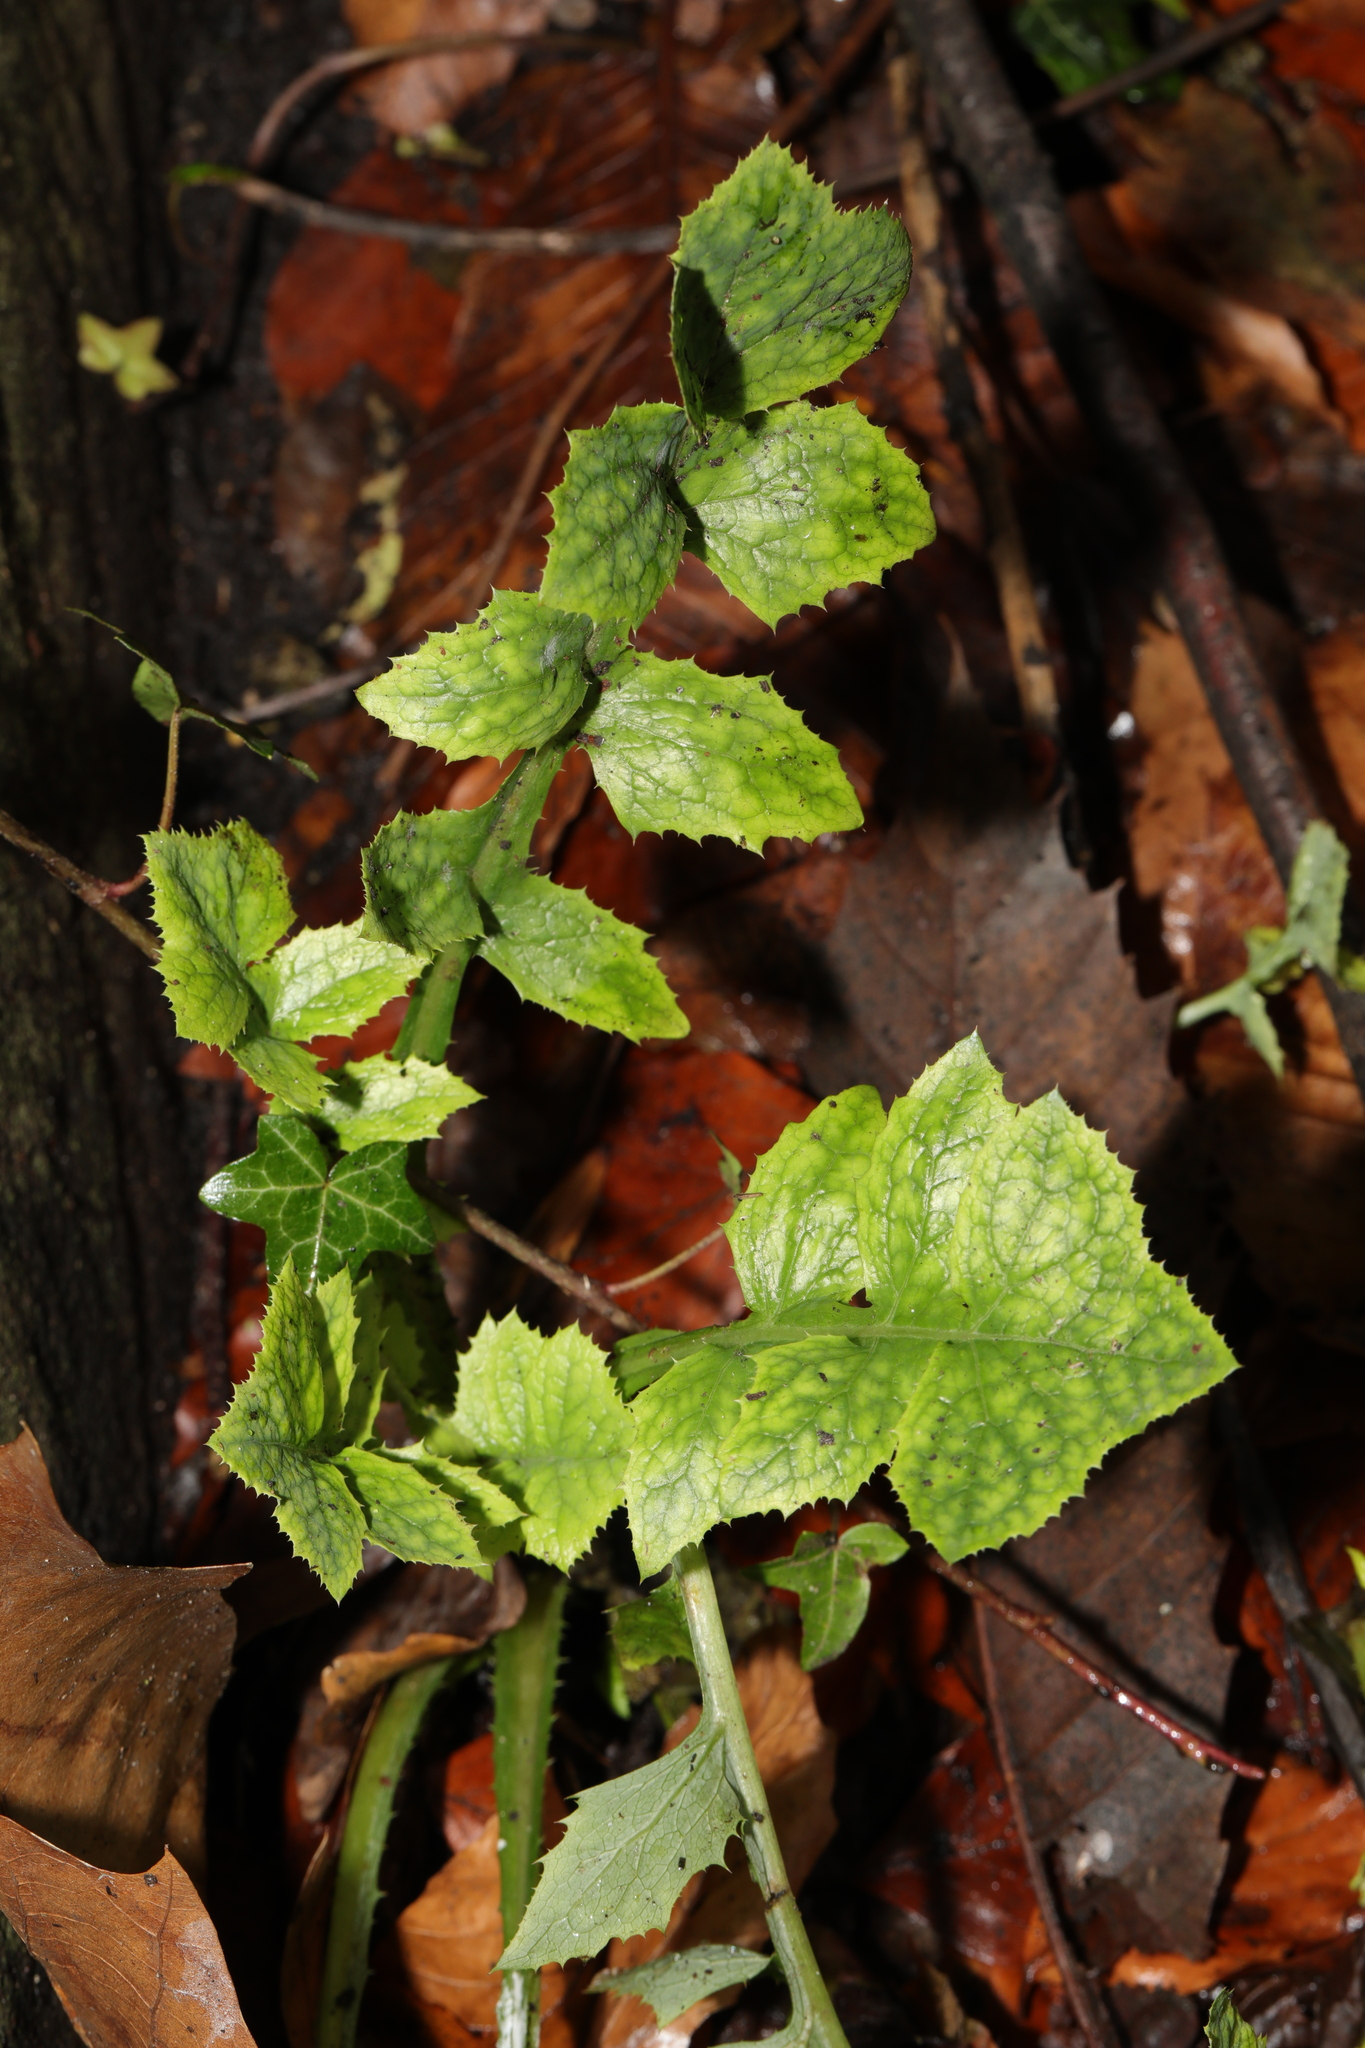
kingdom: Plantae
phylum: Tracheophyta
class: Magnoliopsida
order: Asterales
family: Asteraceae
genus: Sonchus
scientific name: Sonchus oleraceus
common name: Common sowthistle
